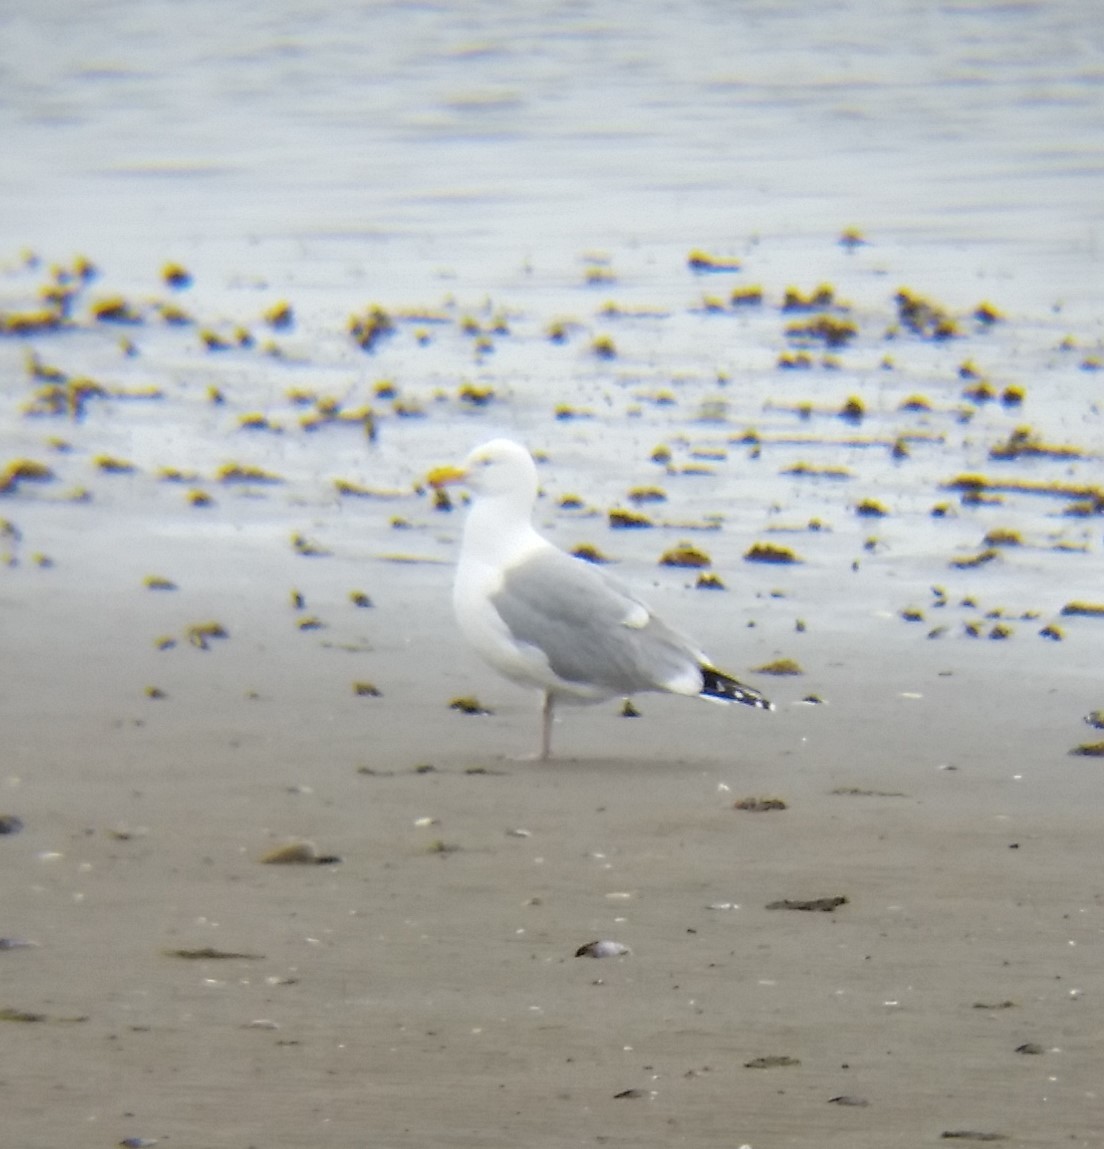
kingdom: Animalia
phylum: Chordata
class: Aves
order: Charadriiformes
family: Laridae
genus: Larus
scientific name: Larus argentatus
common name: Herring gull
